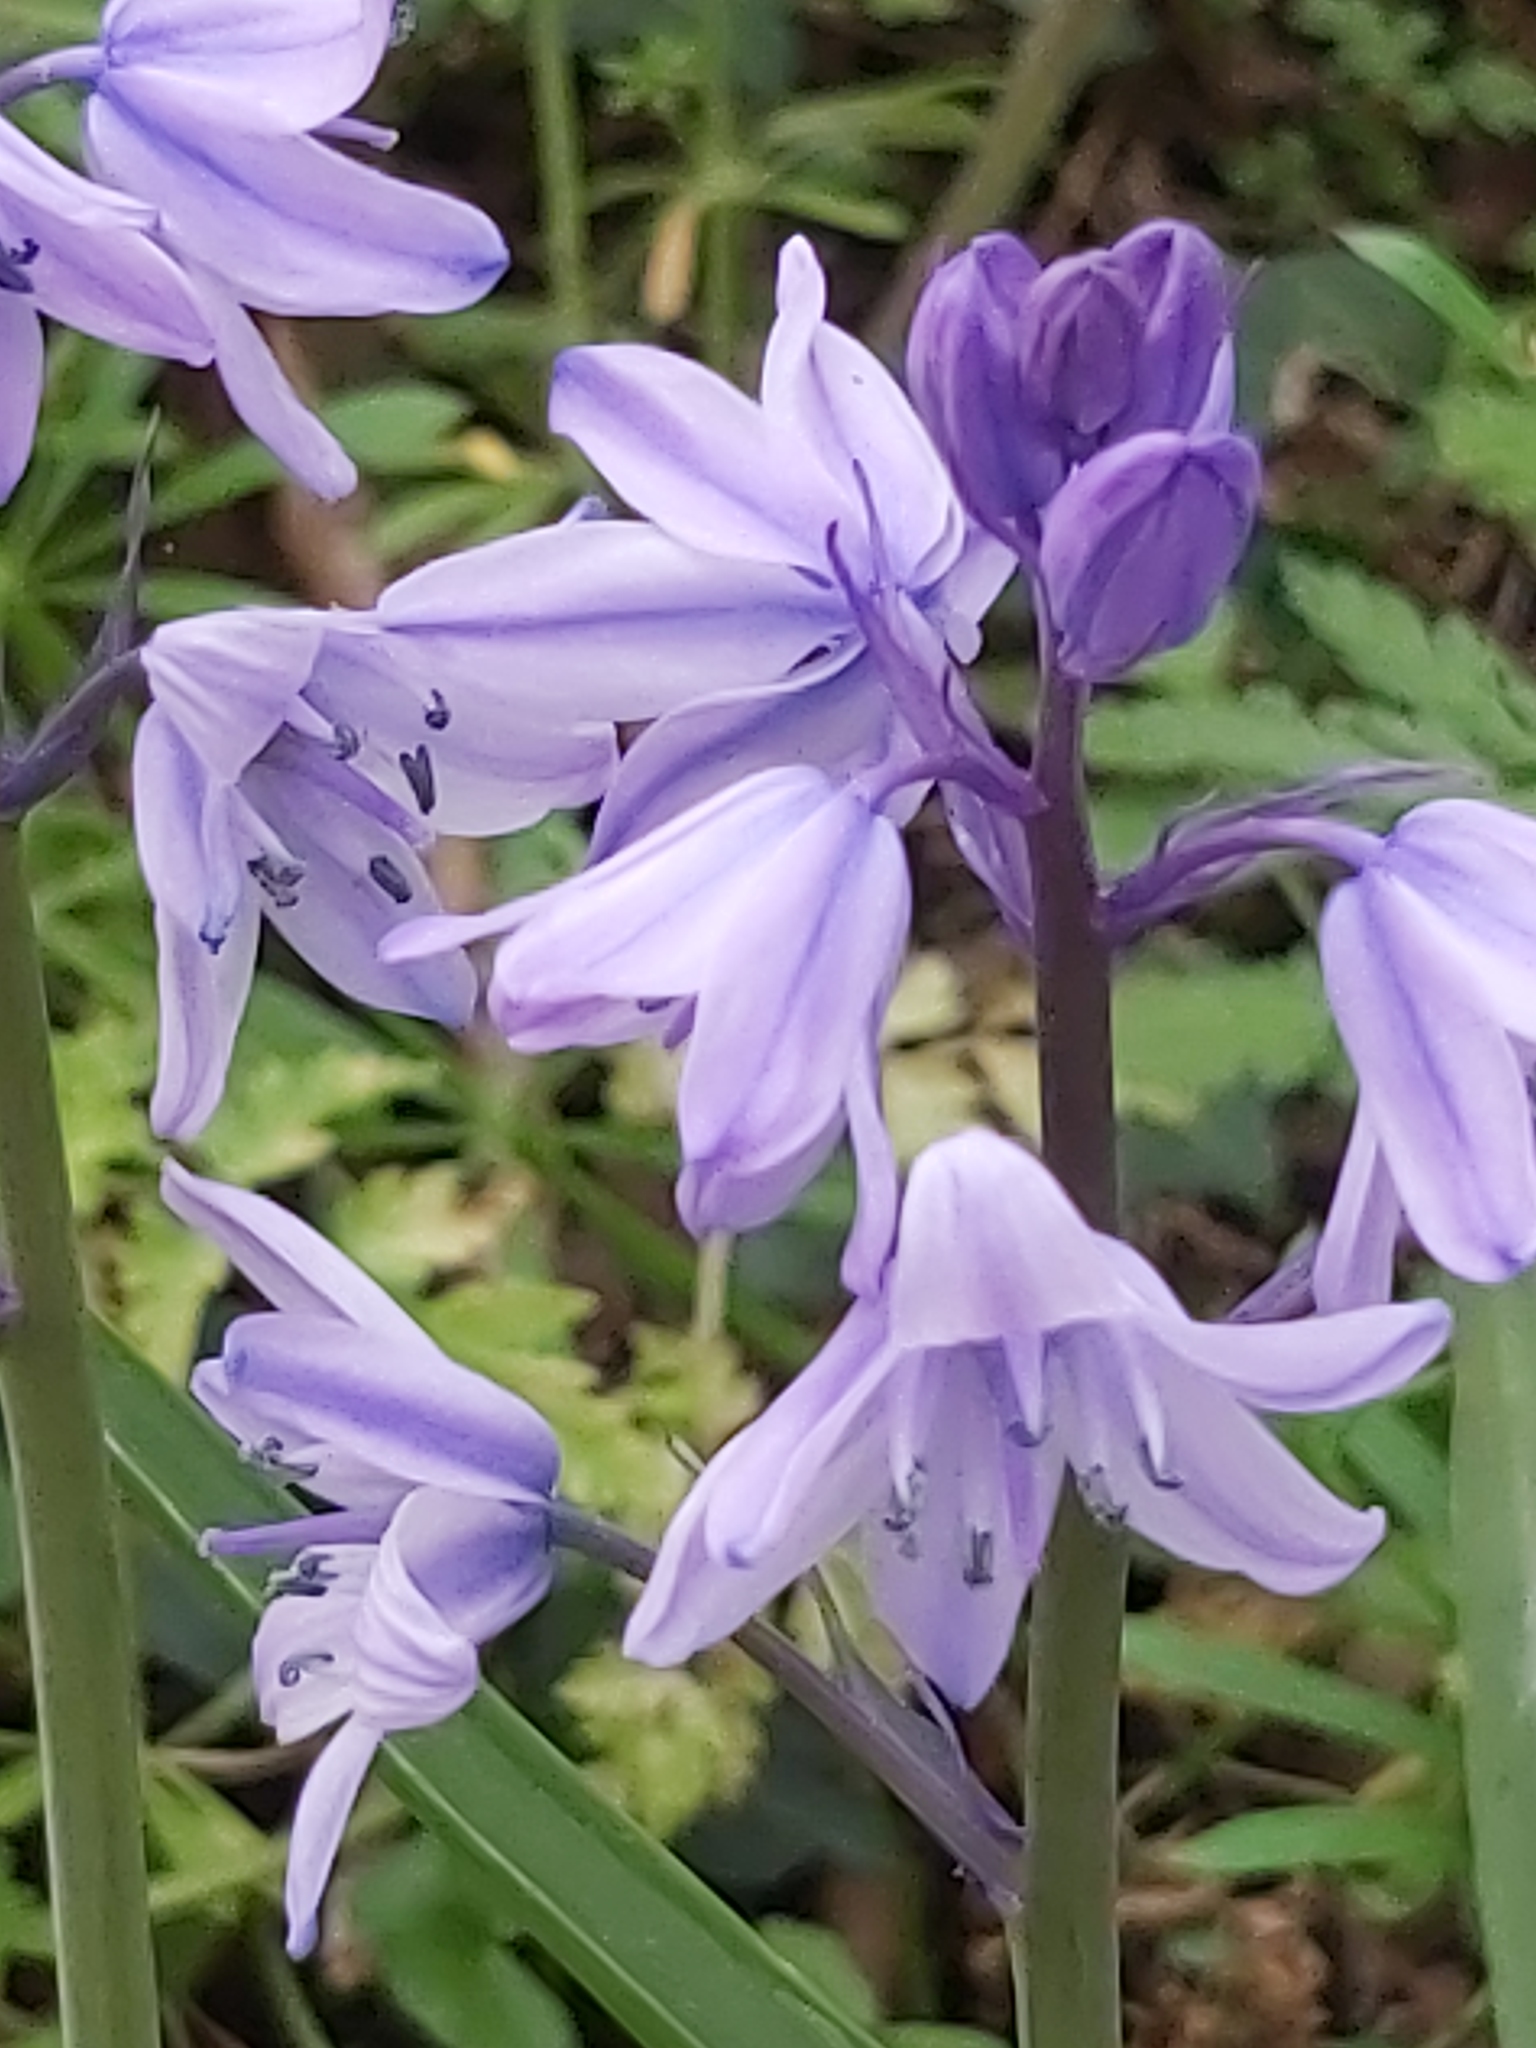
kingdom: Plantae
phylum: Tracheophyta
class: Liliopsida
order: Asparagales
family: Asparagaceae
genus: Hyacinthoides
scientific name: Hyacinthoides hispanica
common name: Spanish bluebell
